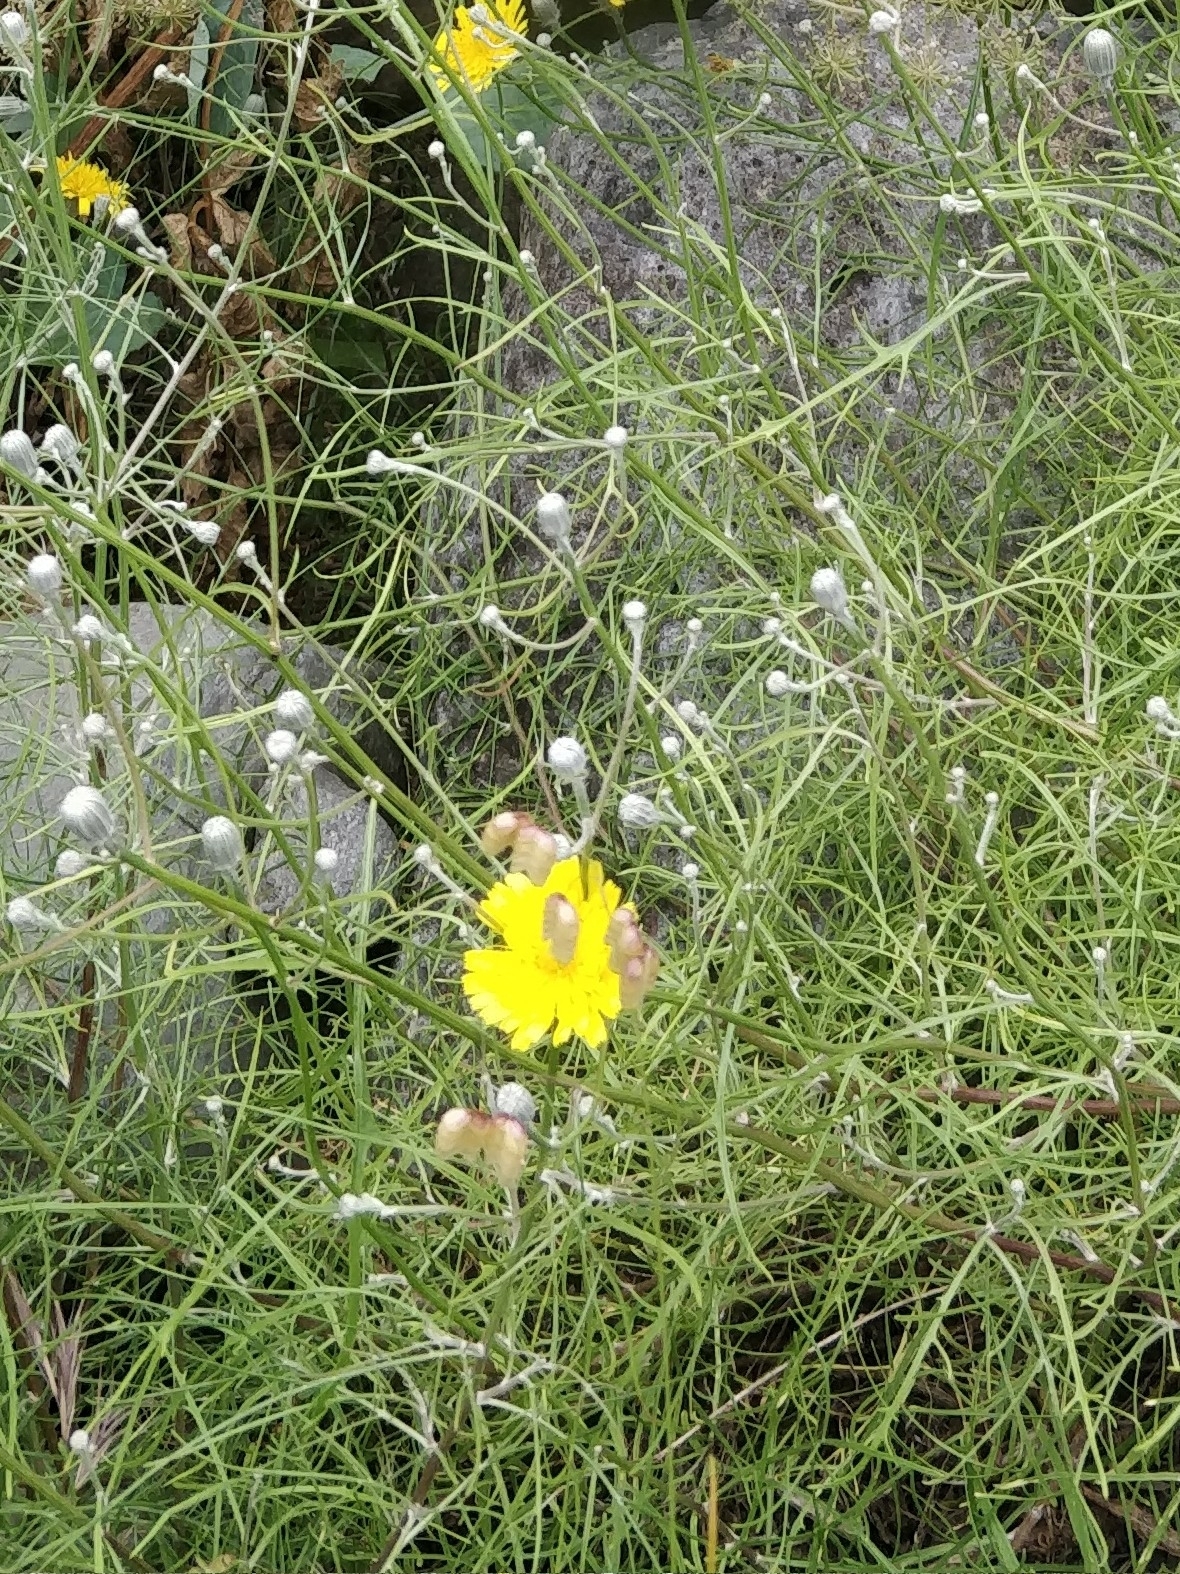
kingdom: Plantae
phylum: Tracheophyta
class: Magnoliopsida
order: Asterales
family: Asteraceae
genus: Tolpis
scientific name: Tolpis succulenta
